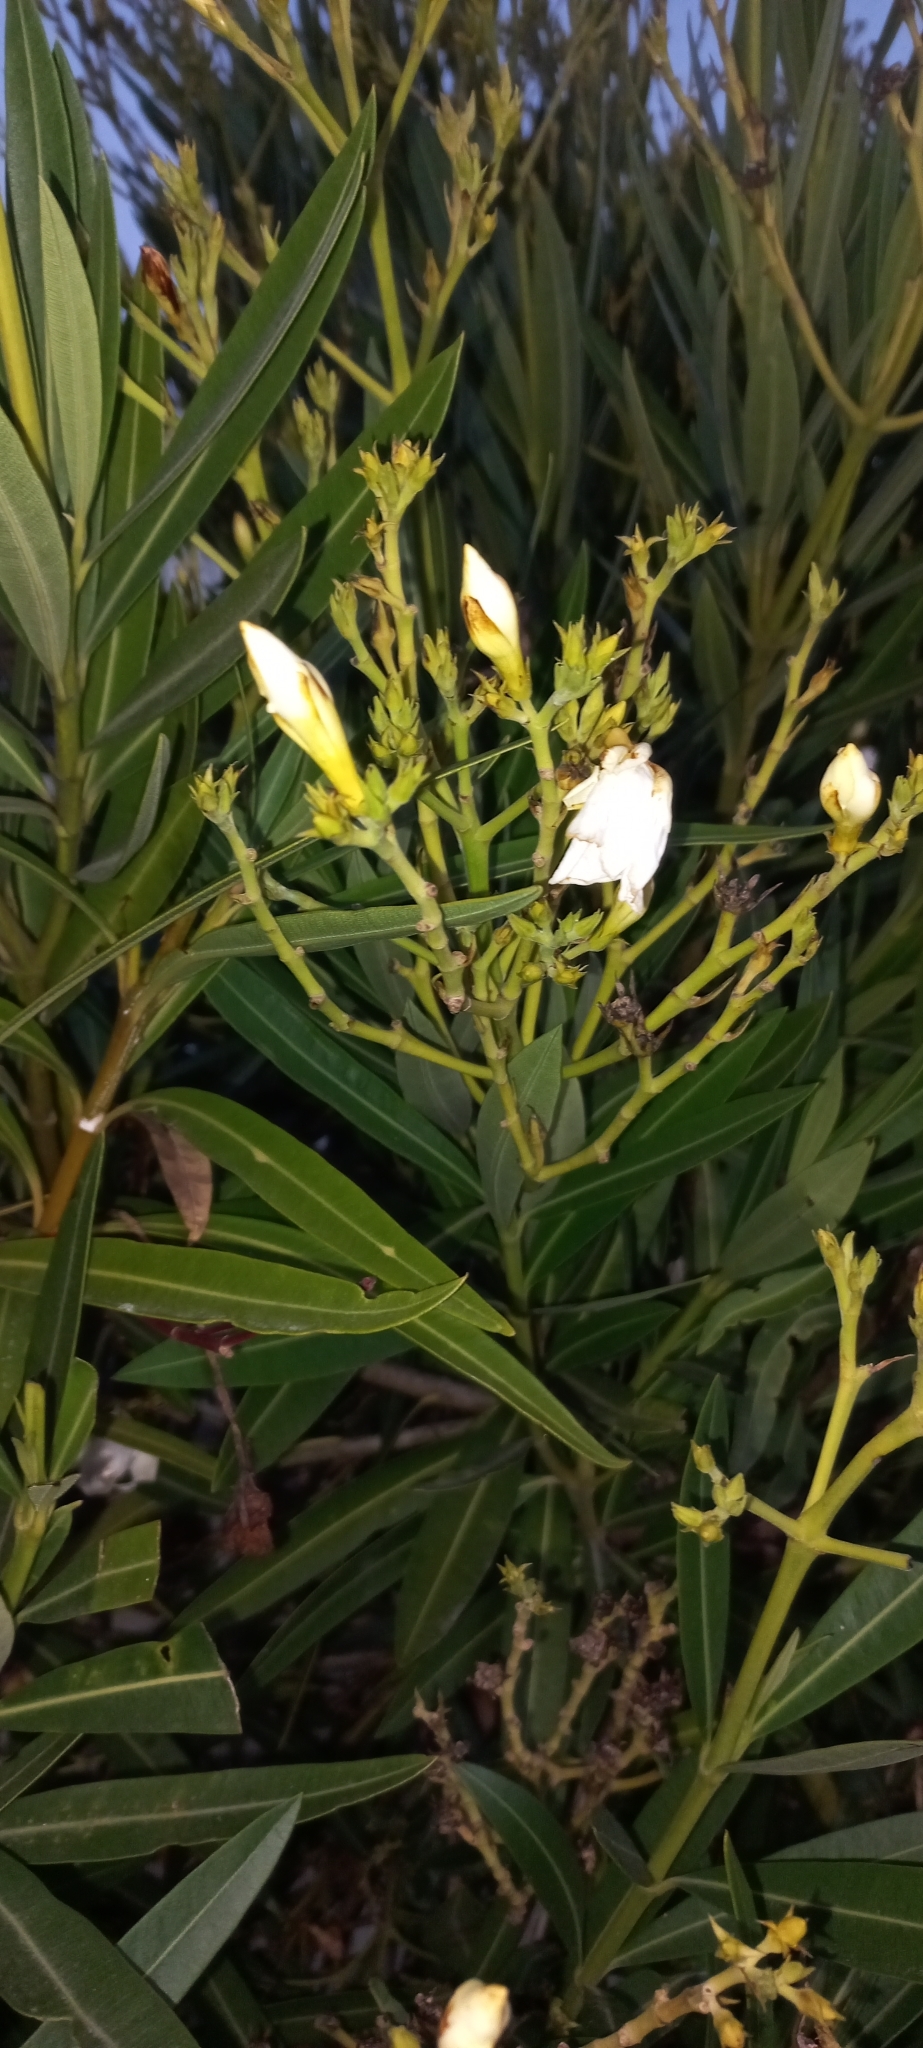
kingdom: Plantae
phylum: Tracheophyta
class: Magnoliopsida
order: Gentianales
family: Apocynaceae
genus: Nerium
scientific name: Nerium oleander
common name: Oleander
